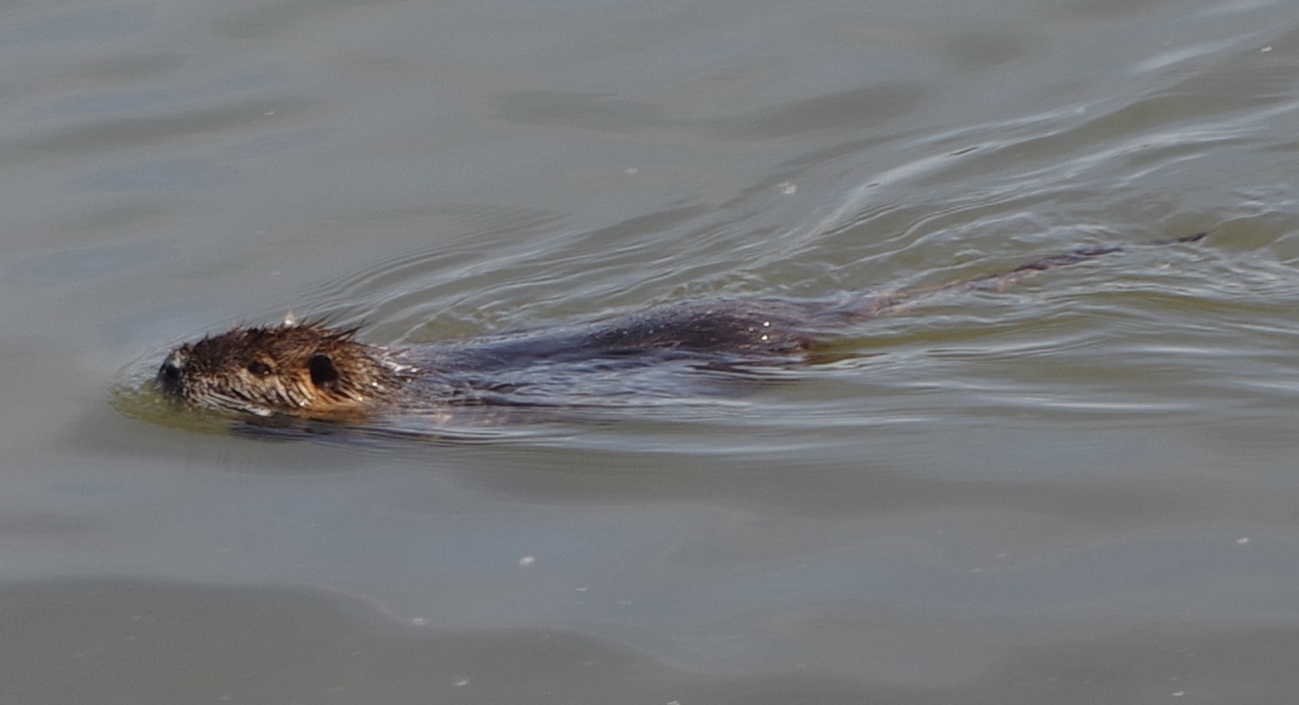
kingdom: Animalia
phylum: Chordata
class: Mammalia
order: Rodentia
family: Myocastoridae
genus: Myocastor
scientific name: Myocastor coypus
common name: Coypu
